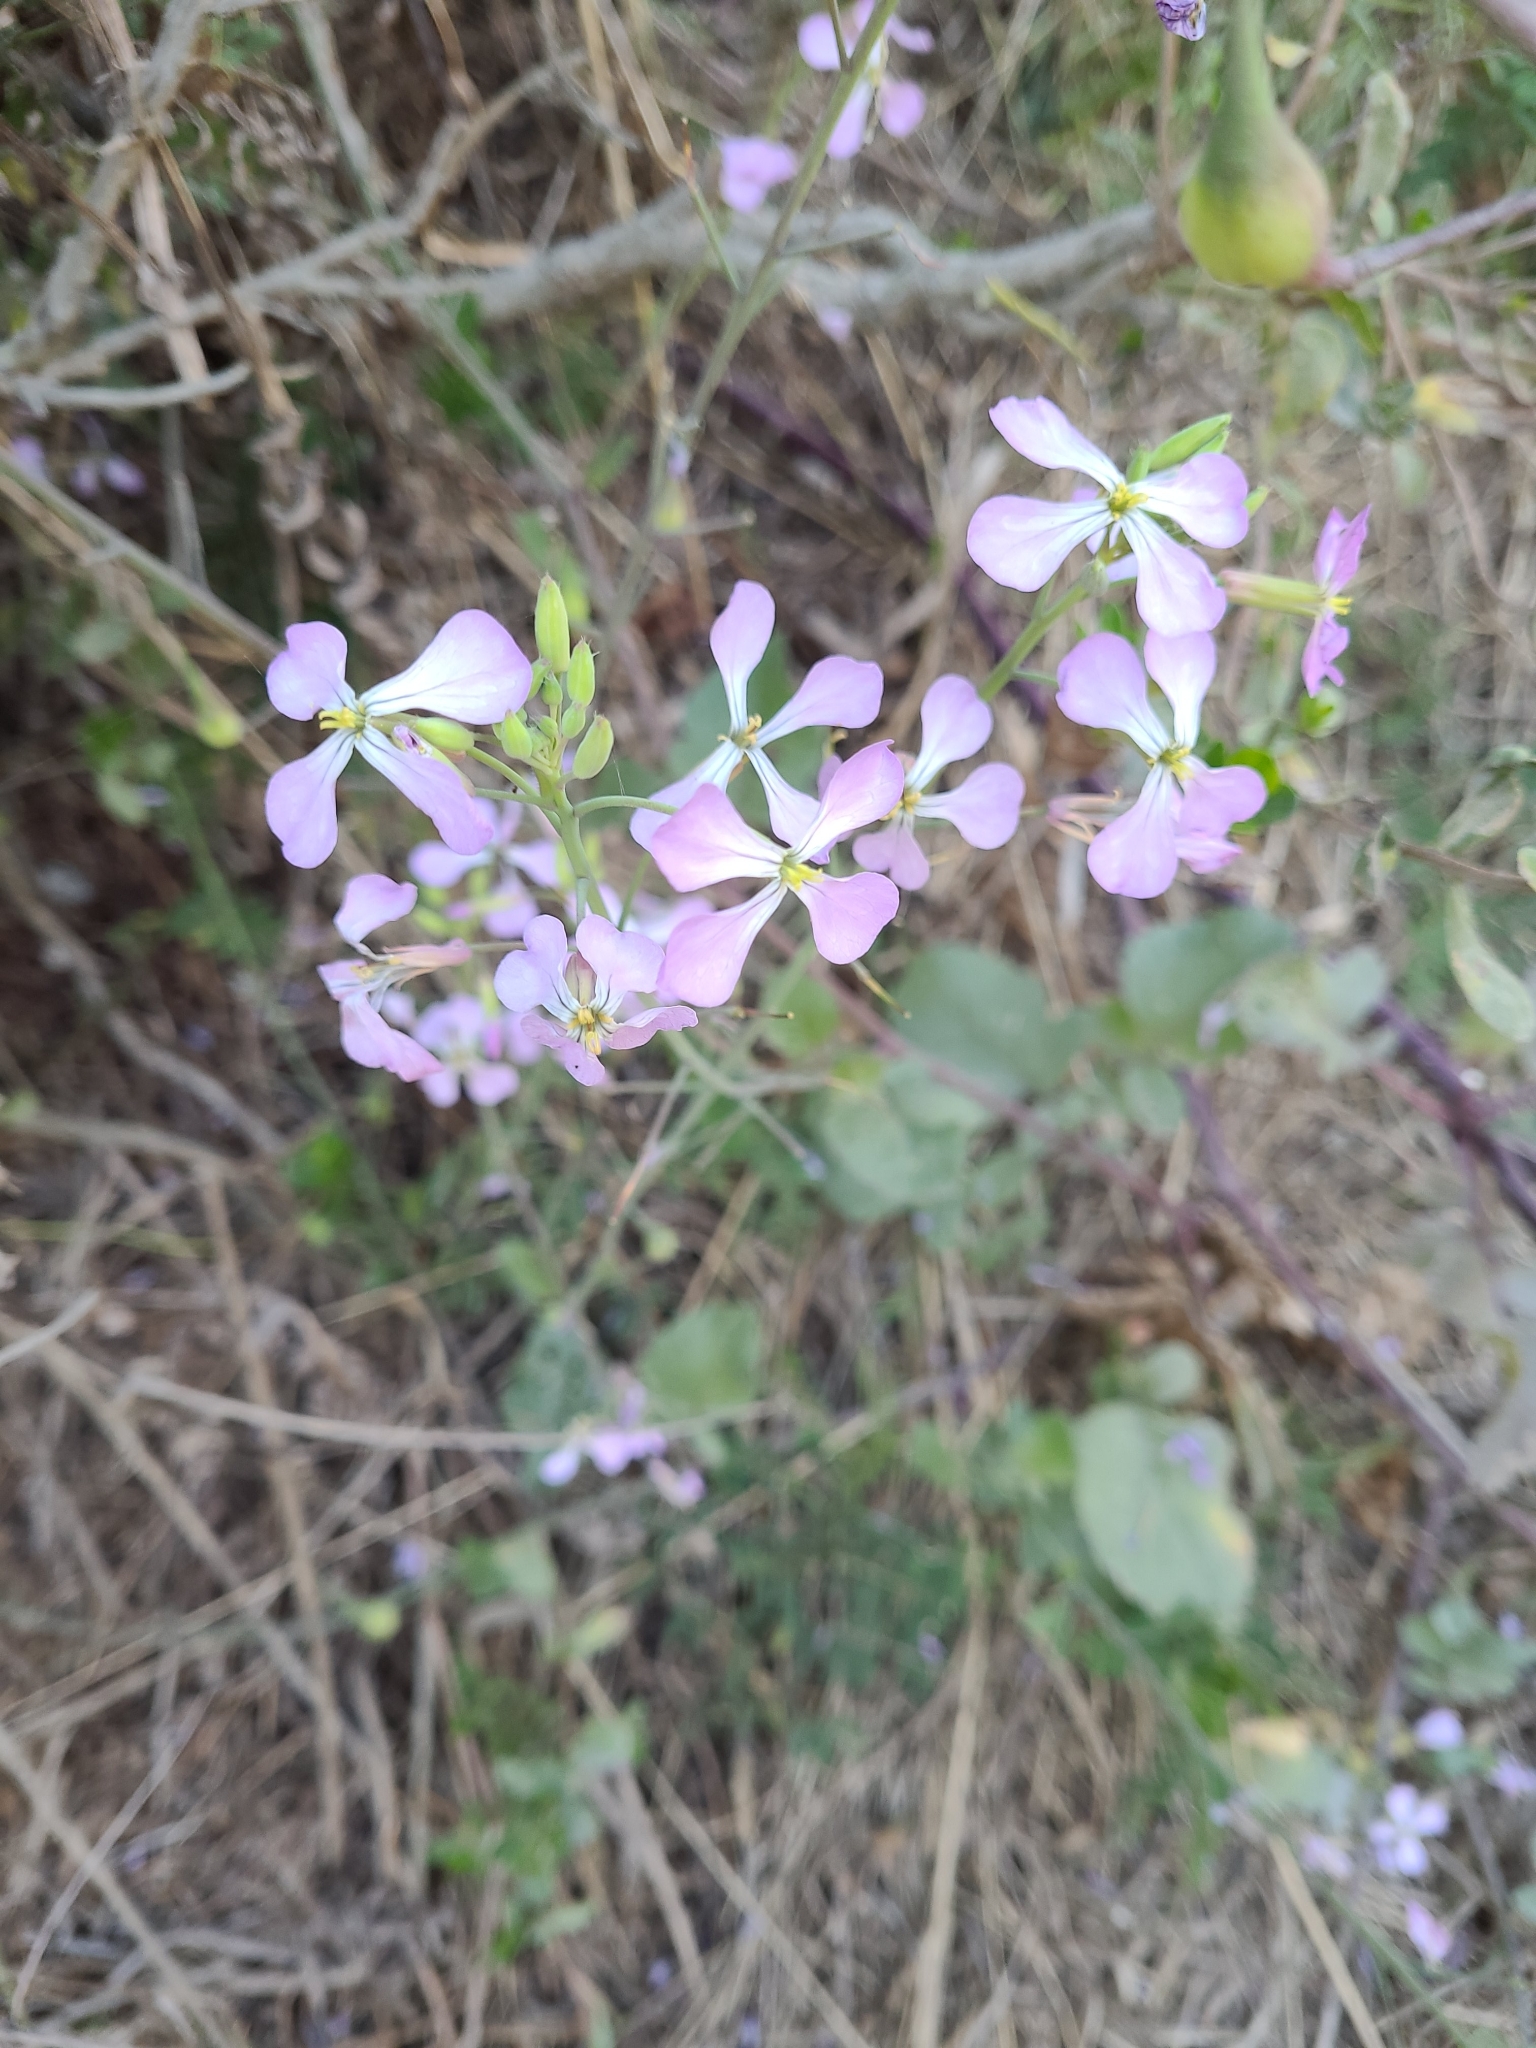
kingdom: Plantae
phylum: Tracheophyta
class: Magnoliopsida
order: Brassicales
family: Brassicaceae
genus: Raphanus
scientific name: Raphanus sativus
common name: Cultivated radish
